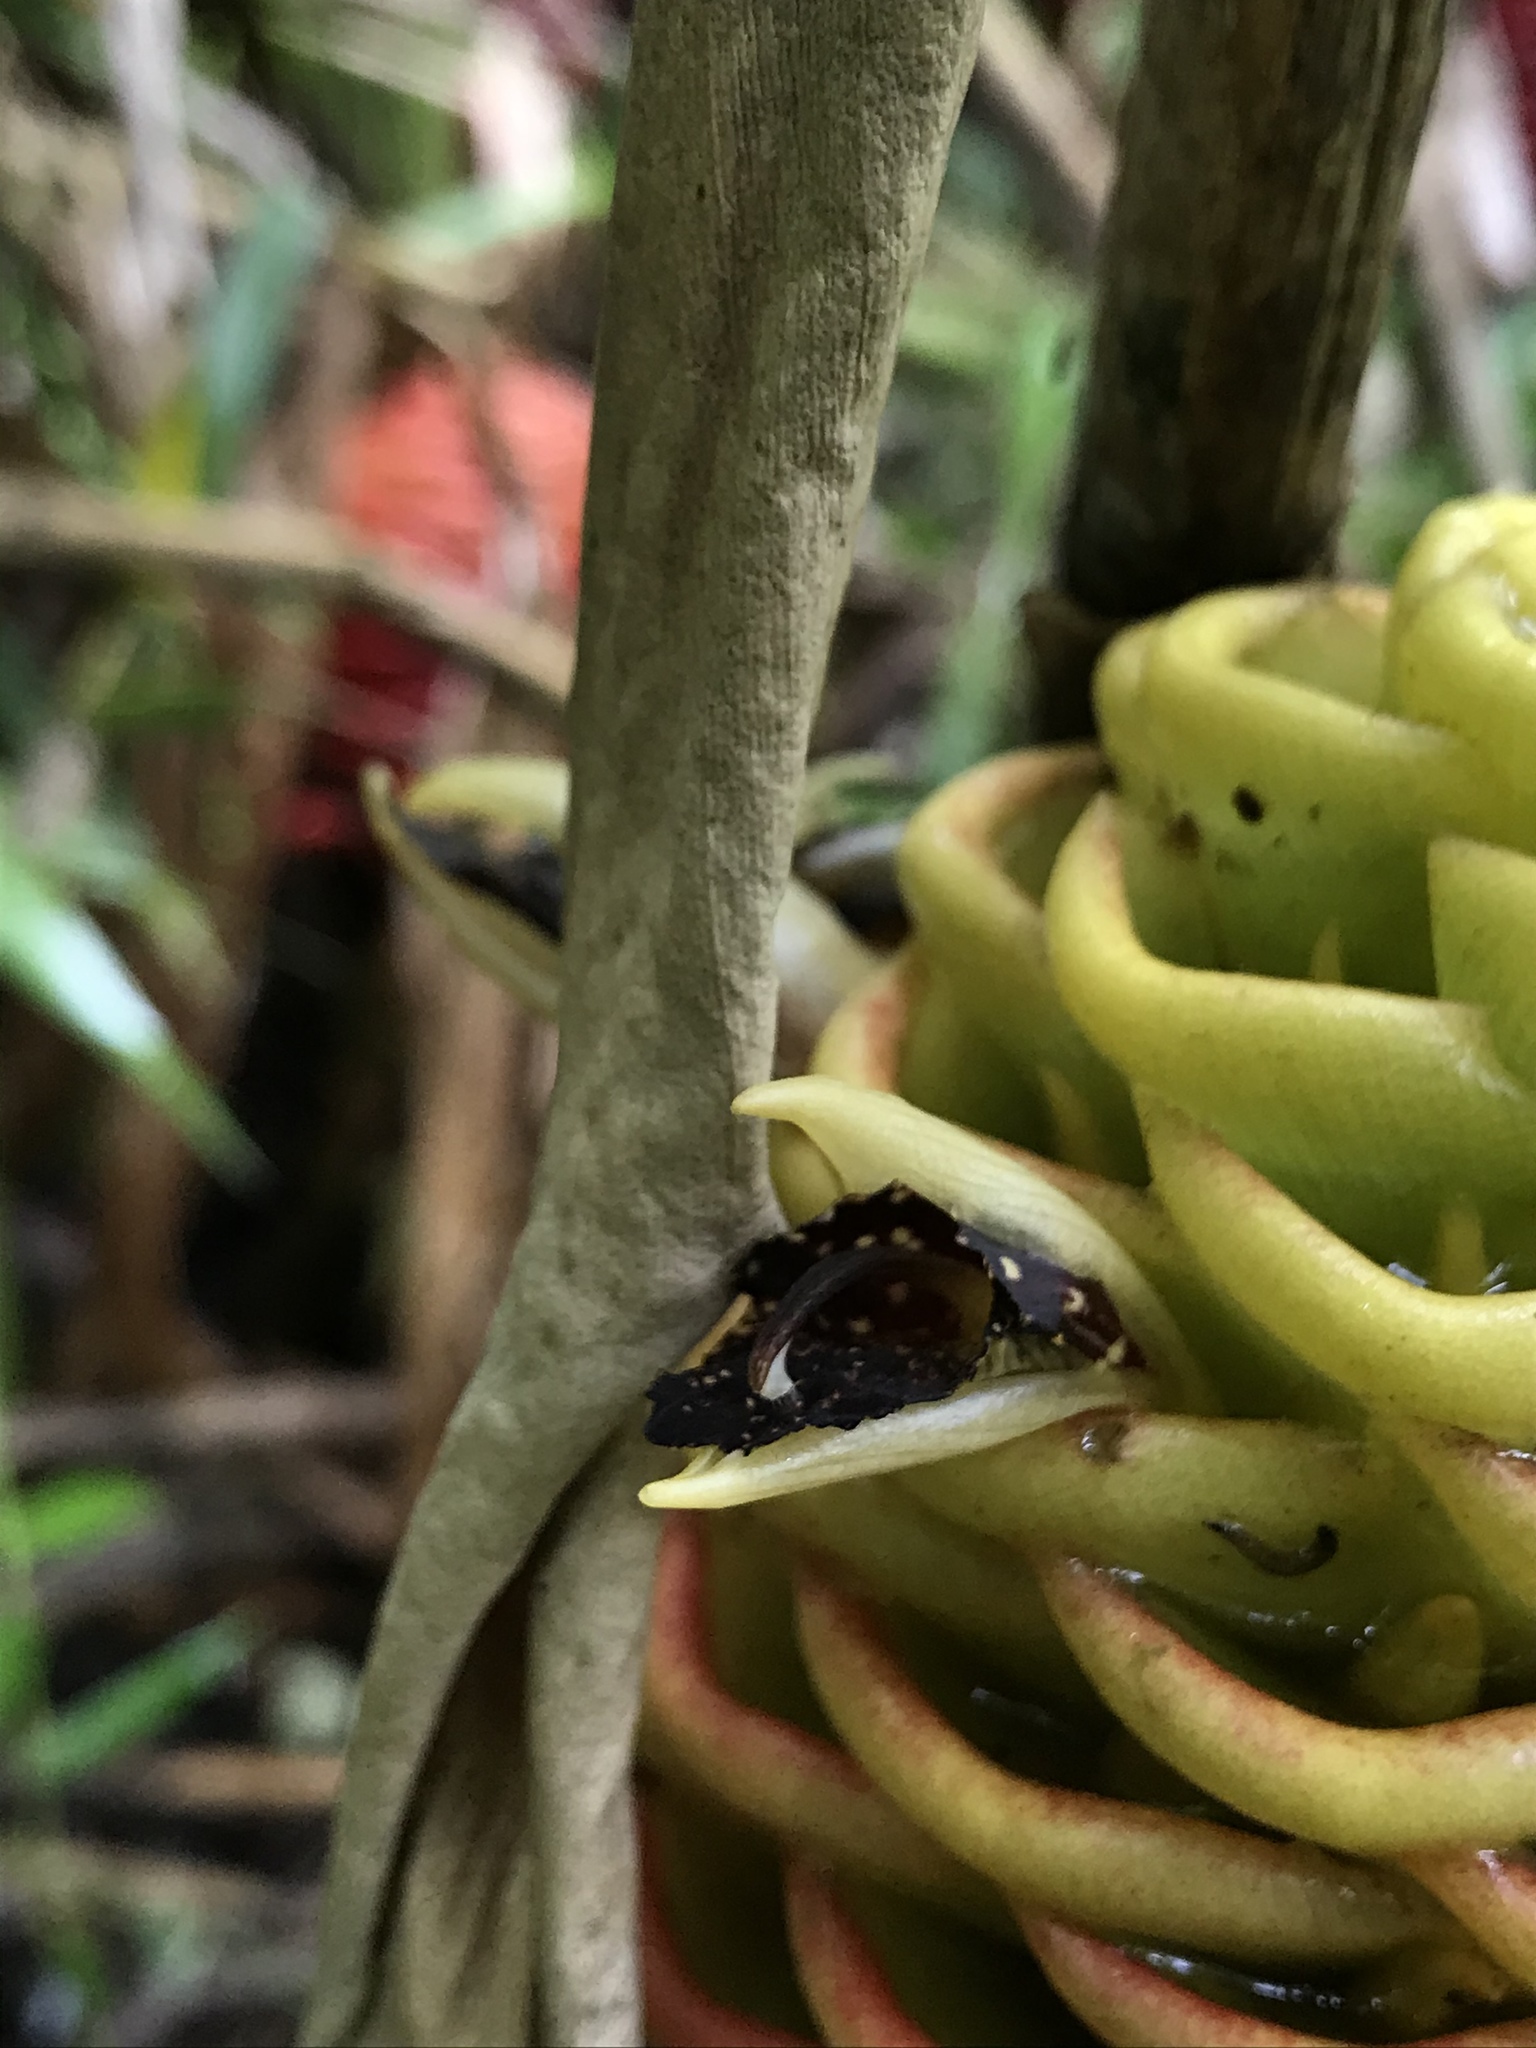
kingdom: Plantae
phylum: Tracheophyta
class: Liliopsida
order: Zingiberales
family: Zingiberaceae
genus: Zingiber
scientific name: Zingiber spectabile
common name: Beehive ginger
